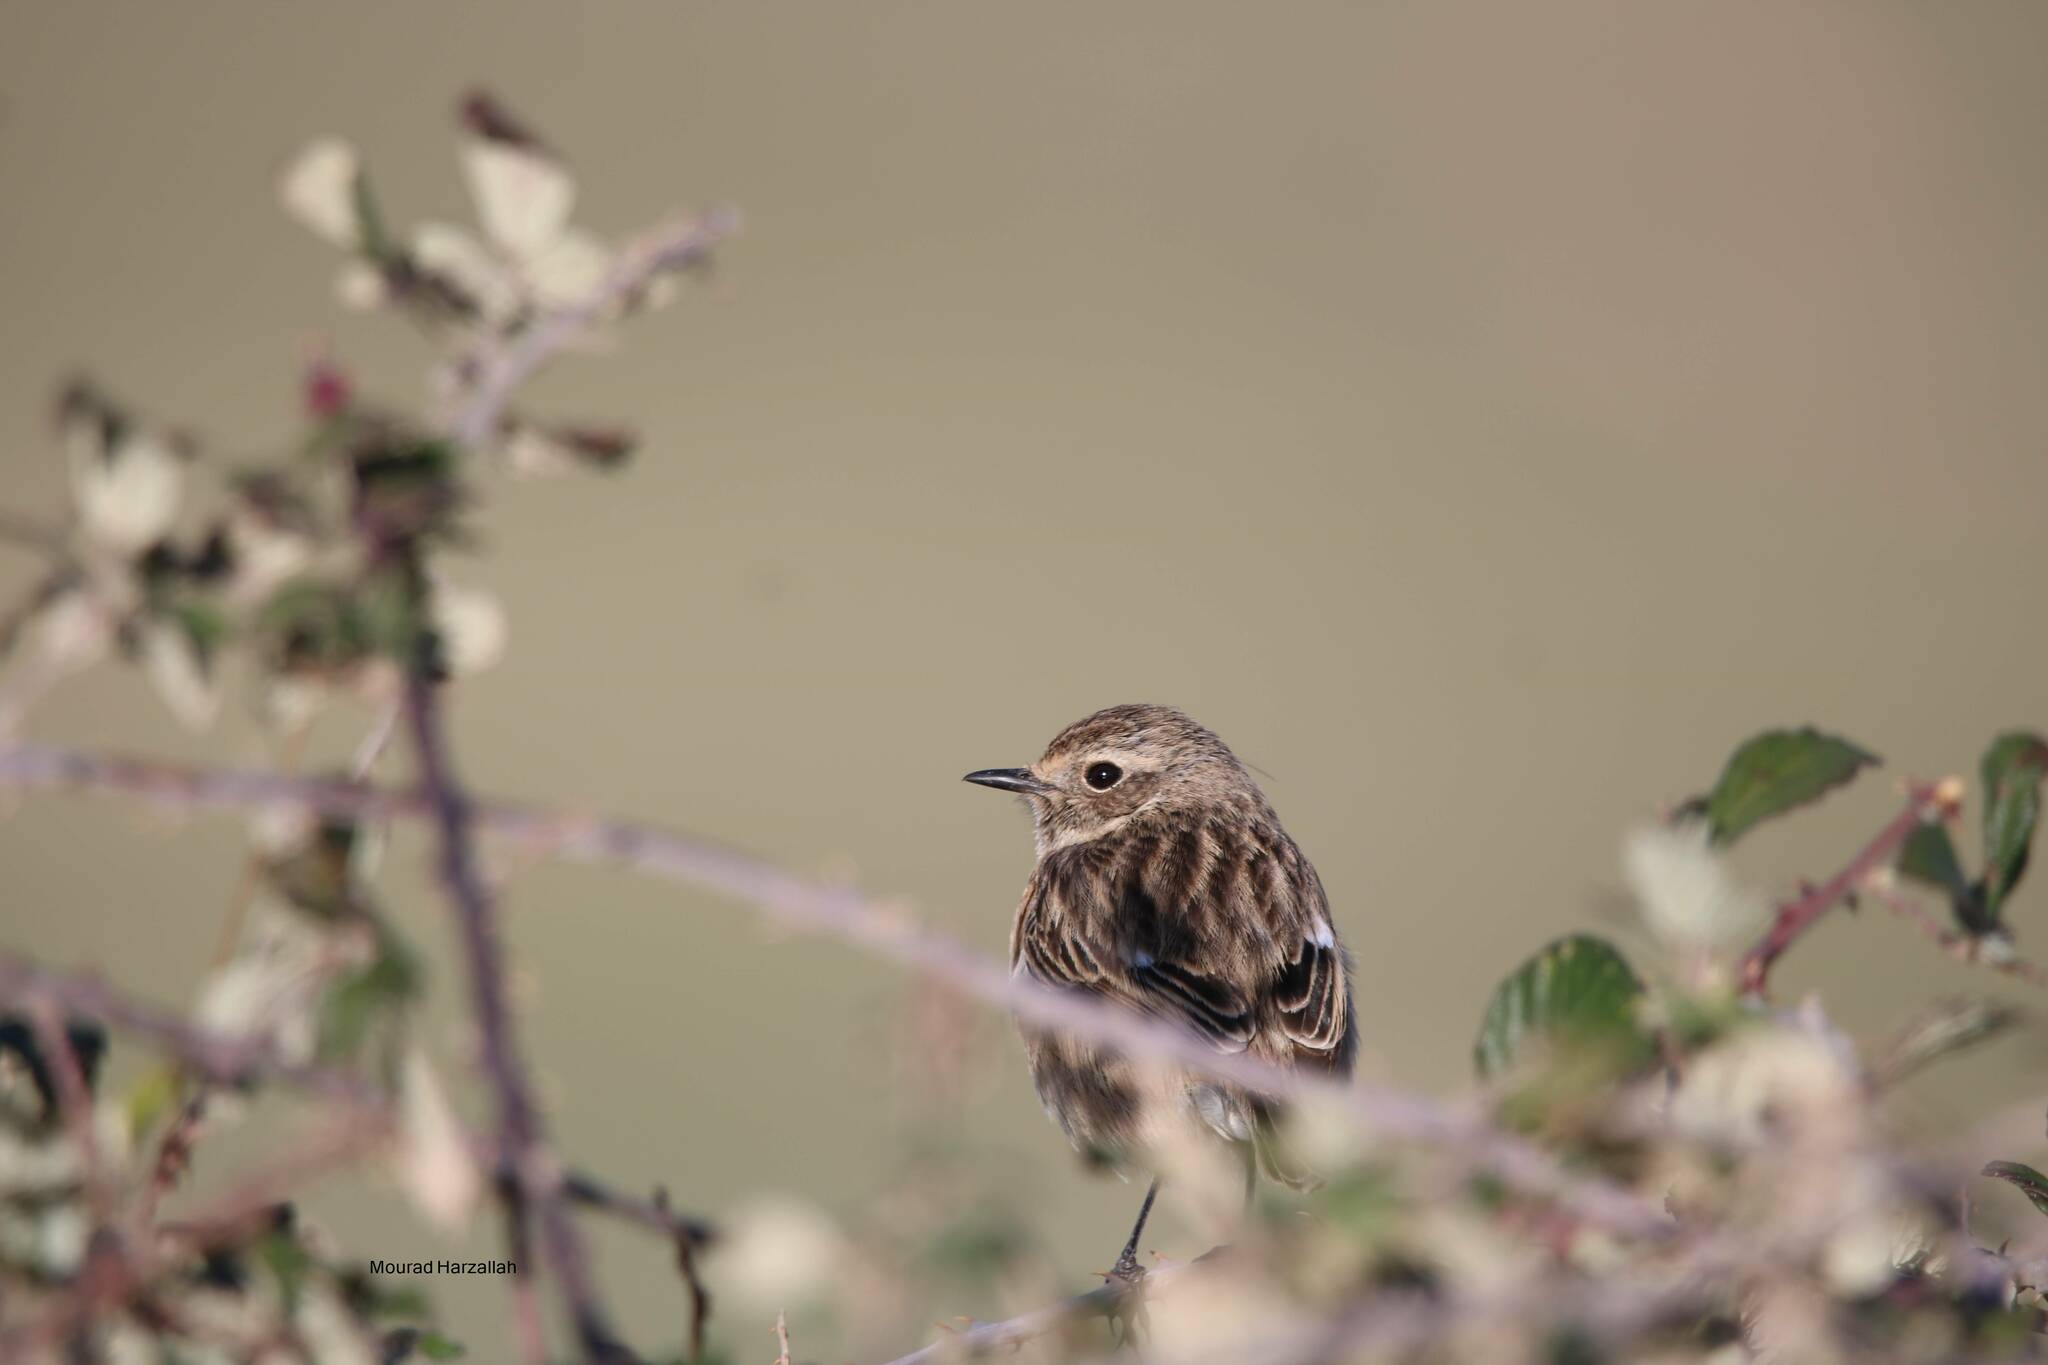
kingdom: Animalia
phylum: Chordata
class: Aves
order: Passeriformes
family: Muscicapidae
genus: Saxicola
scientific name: Saxicola rubicola
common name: European stonechat
